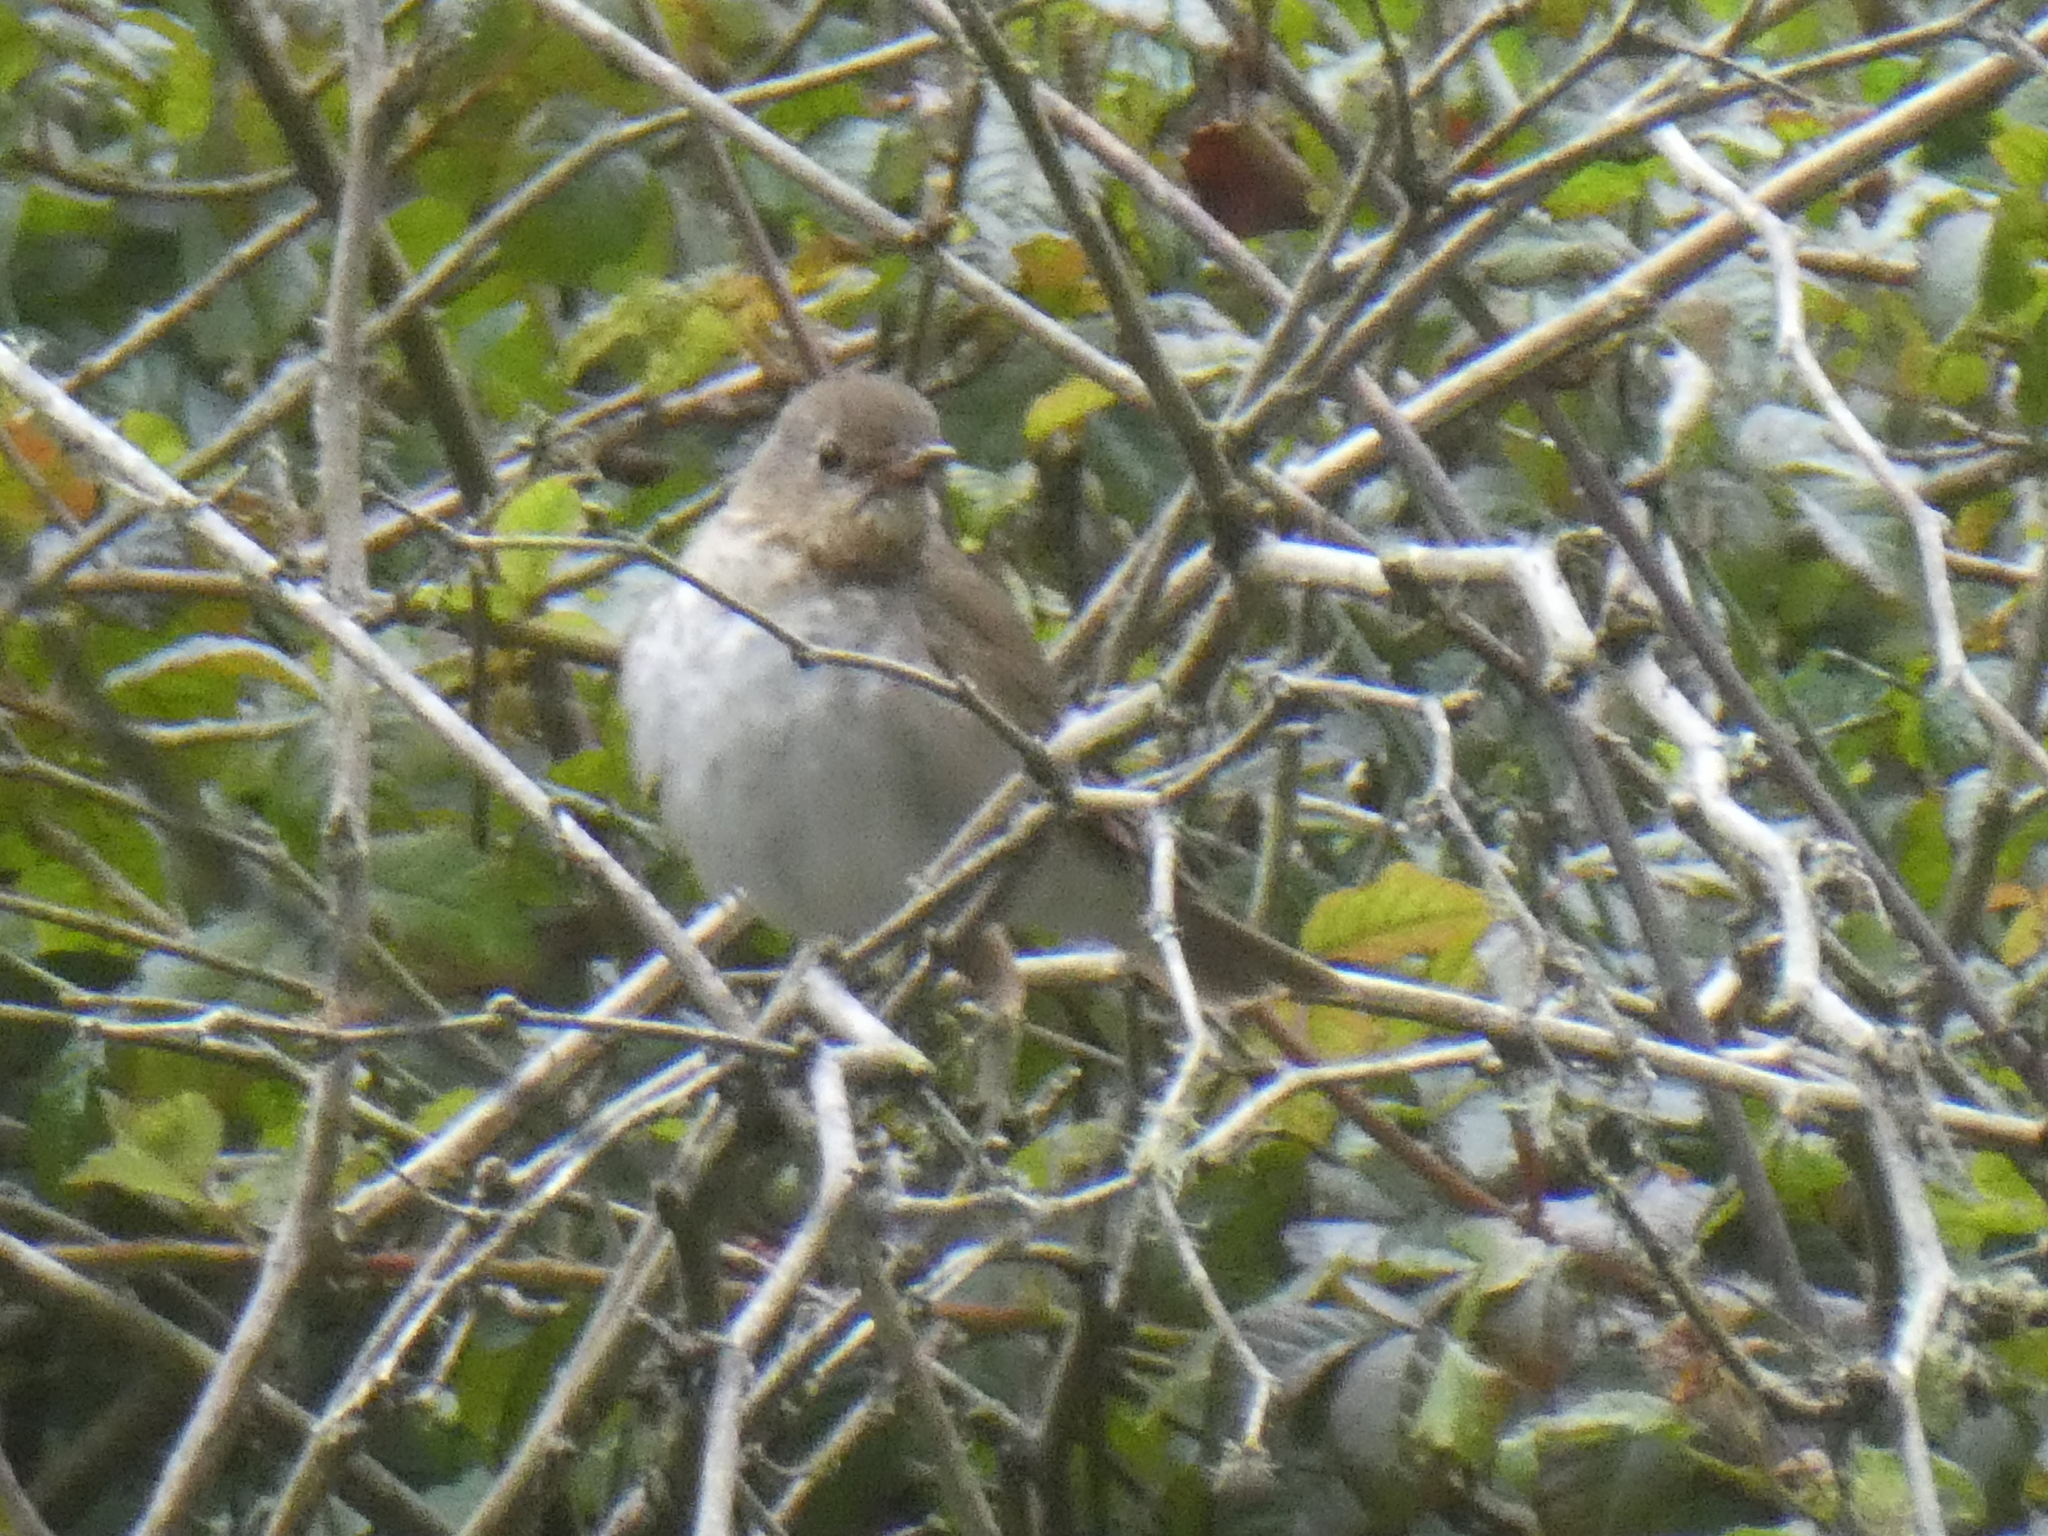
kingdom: Animalia
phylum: Chordata
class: Aves
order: Passeriformes
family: Turdidae
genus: Catharus
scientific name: Catharus ustulatus
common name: Swainson's thrush
